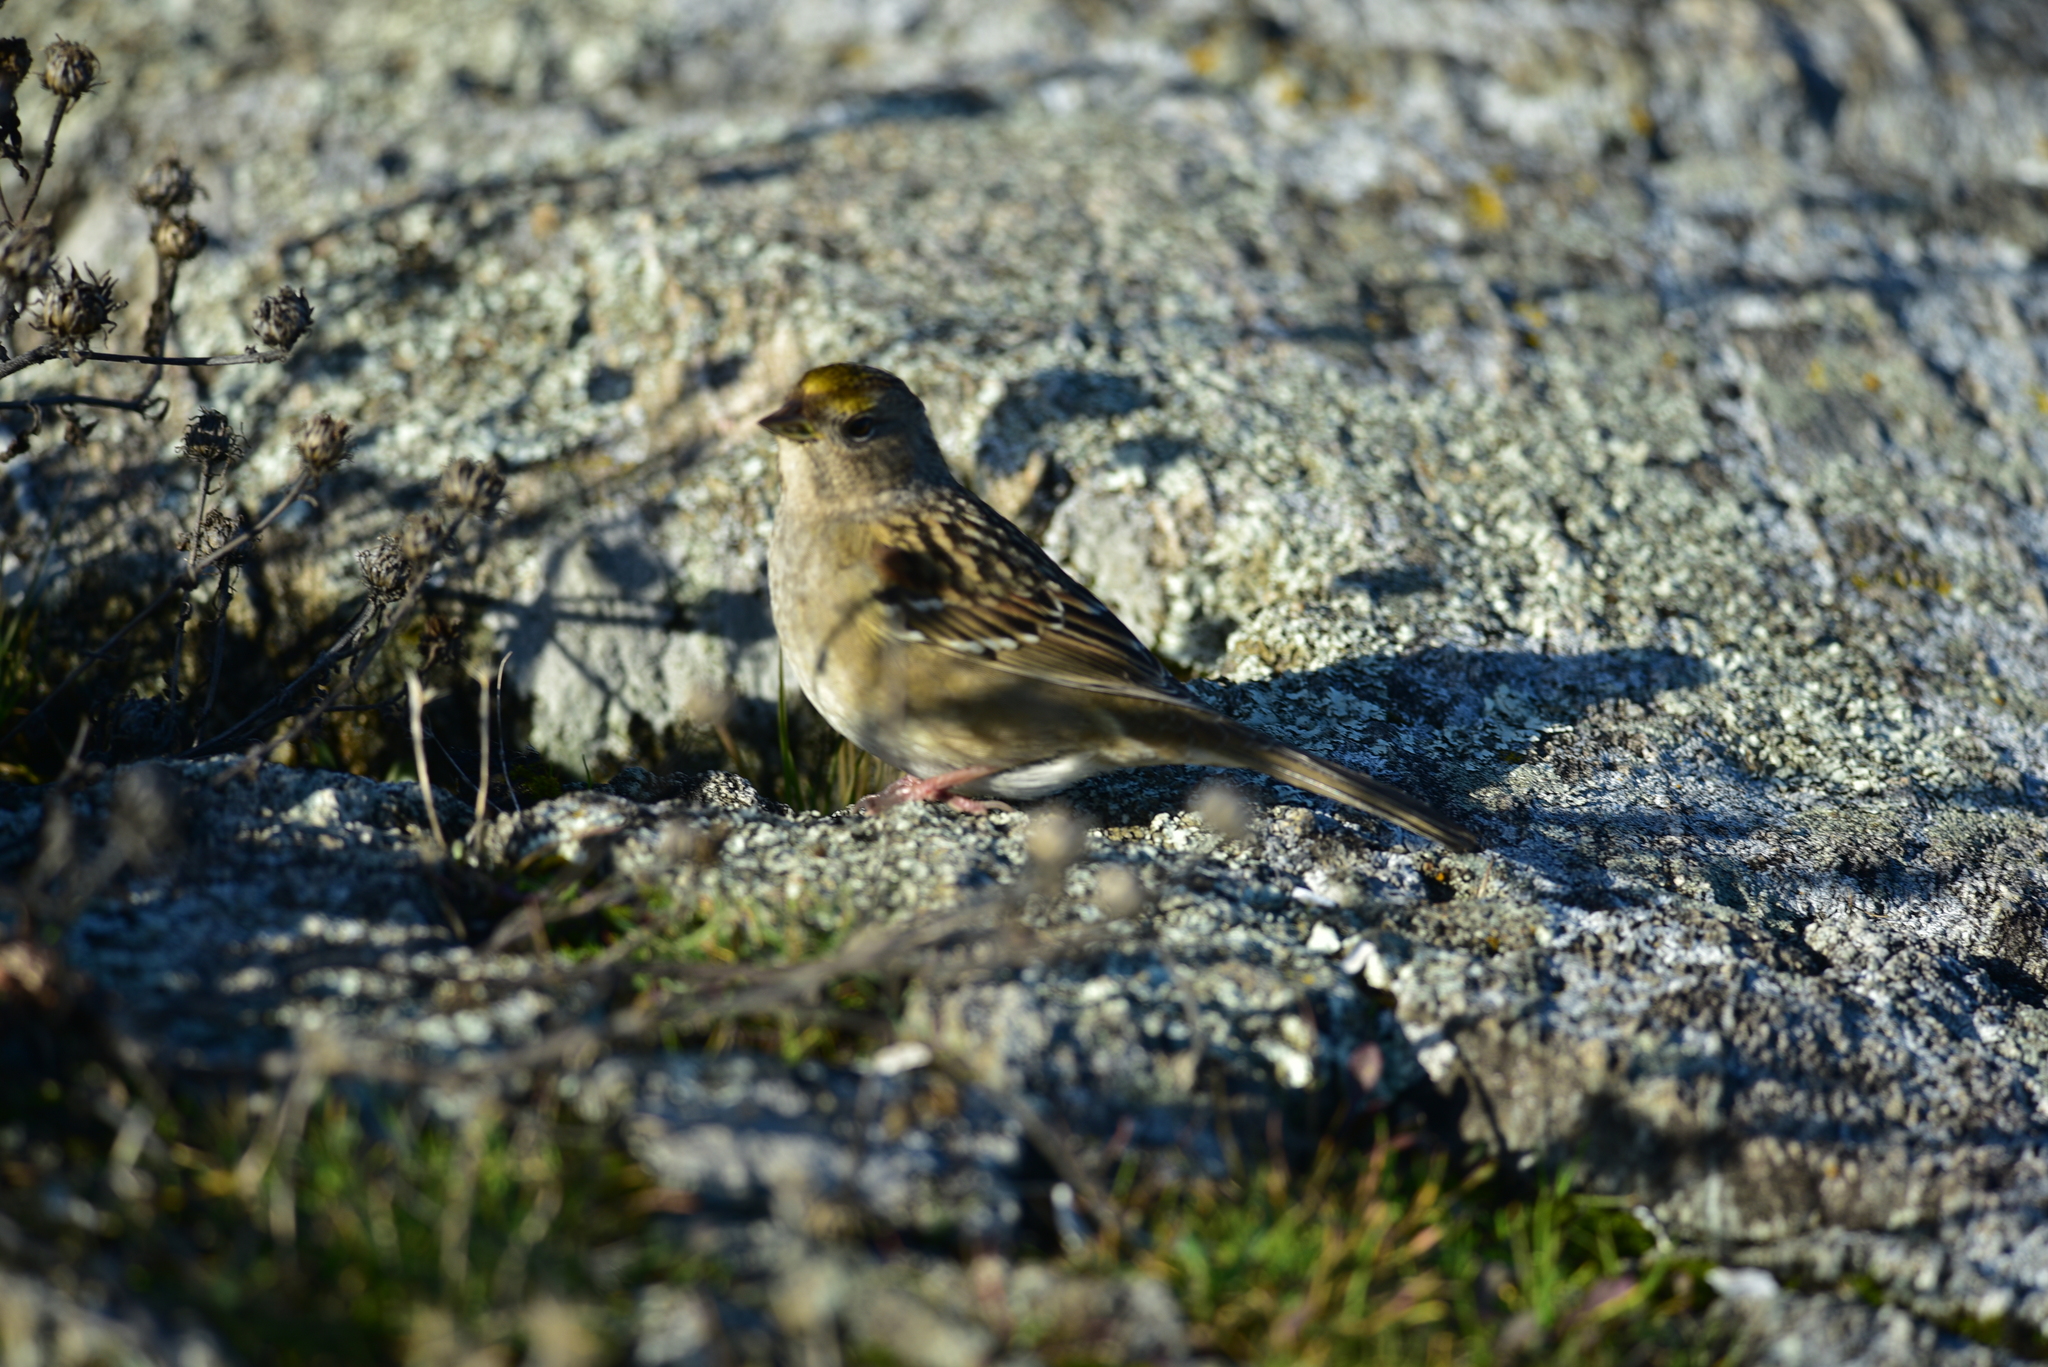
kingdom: Animalia
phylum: Chordata
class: Aves
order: Passeriformes
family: Passerellidae
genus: Zonotrichia
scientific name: Zonotrichia atricapilla
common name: Golden-crowned sparrow
